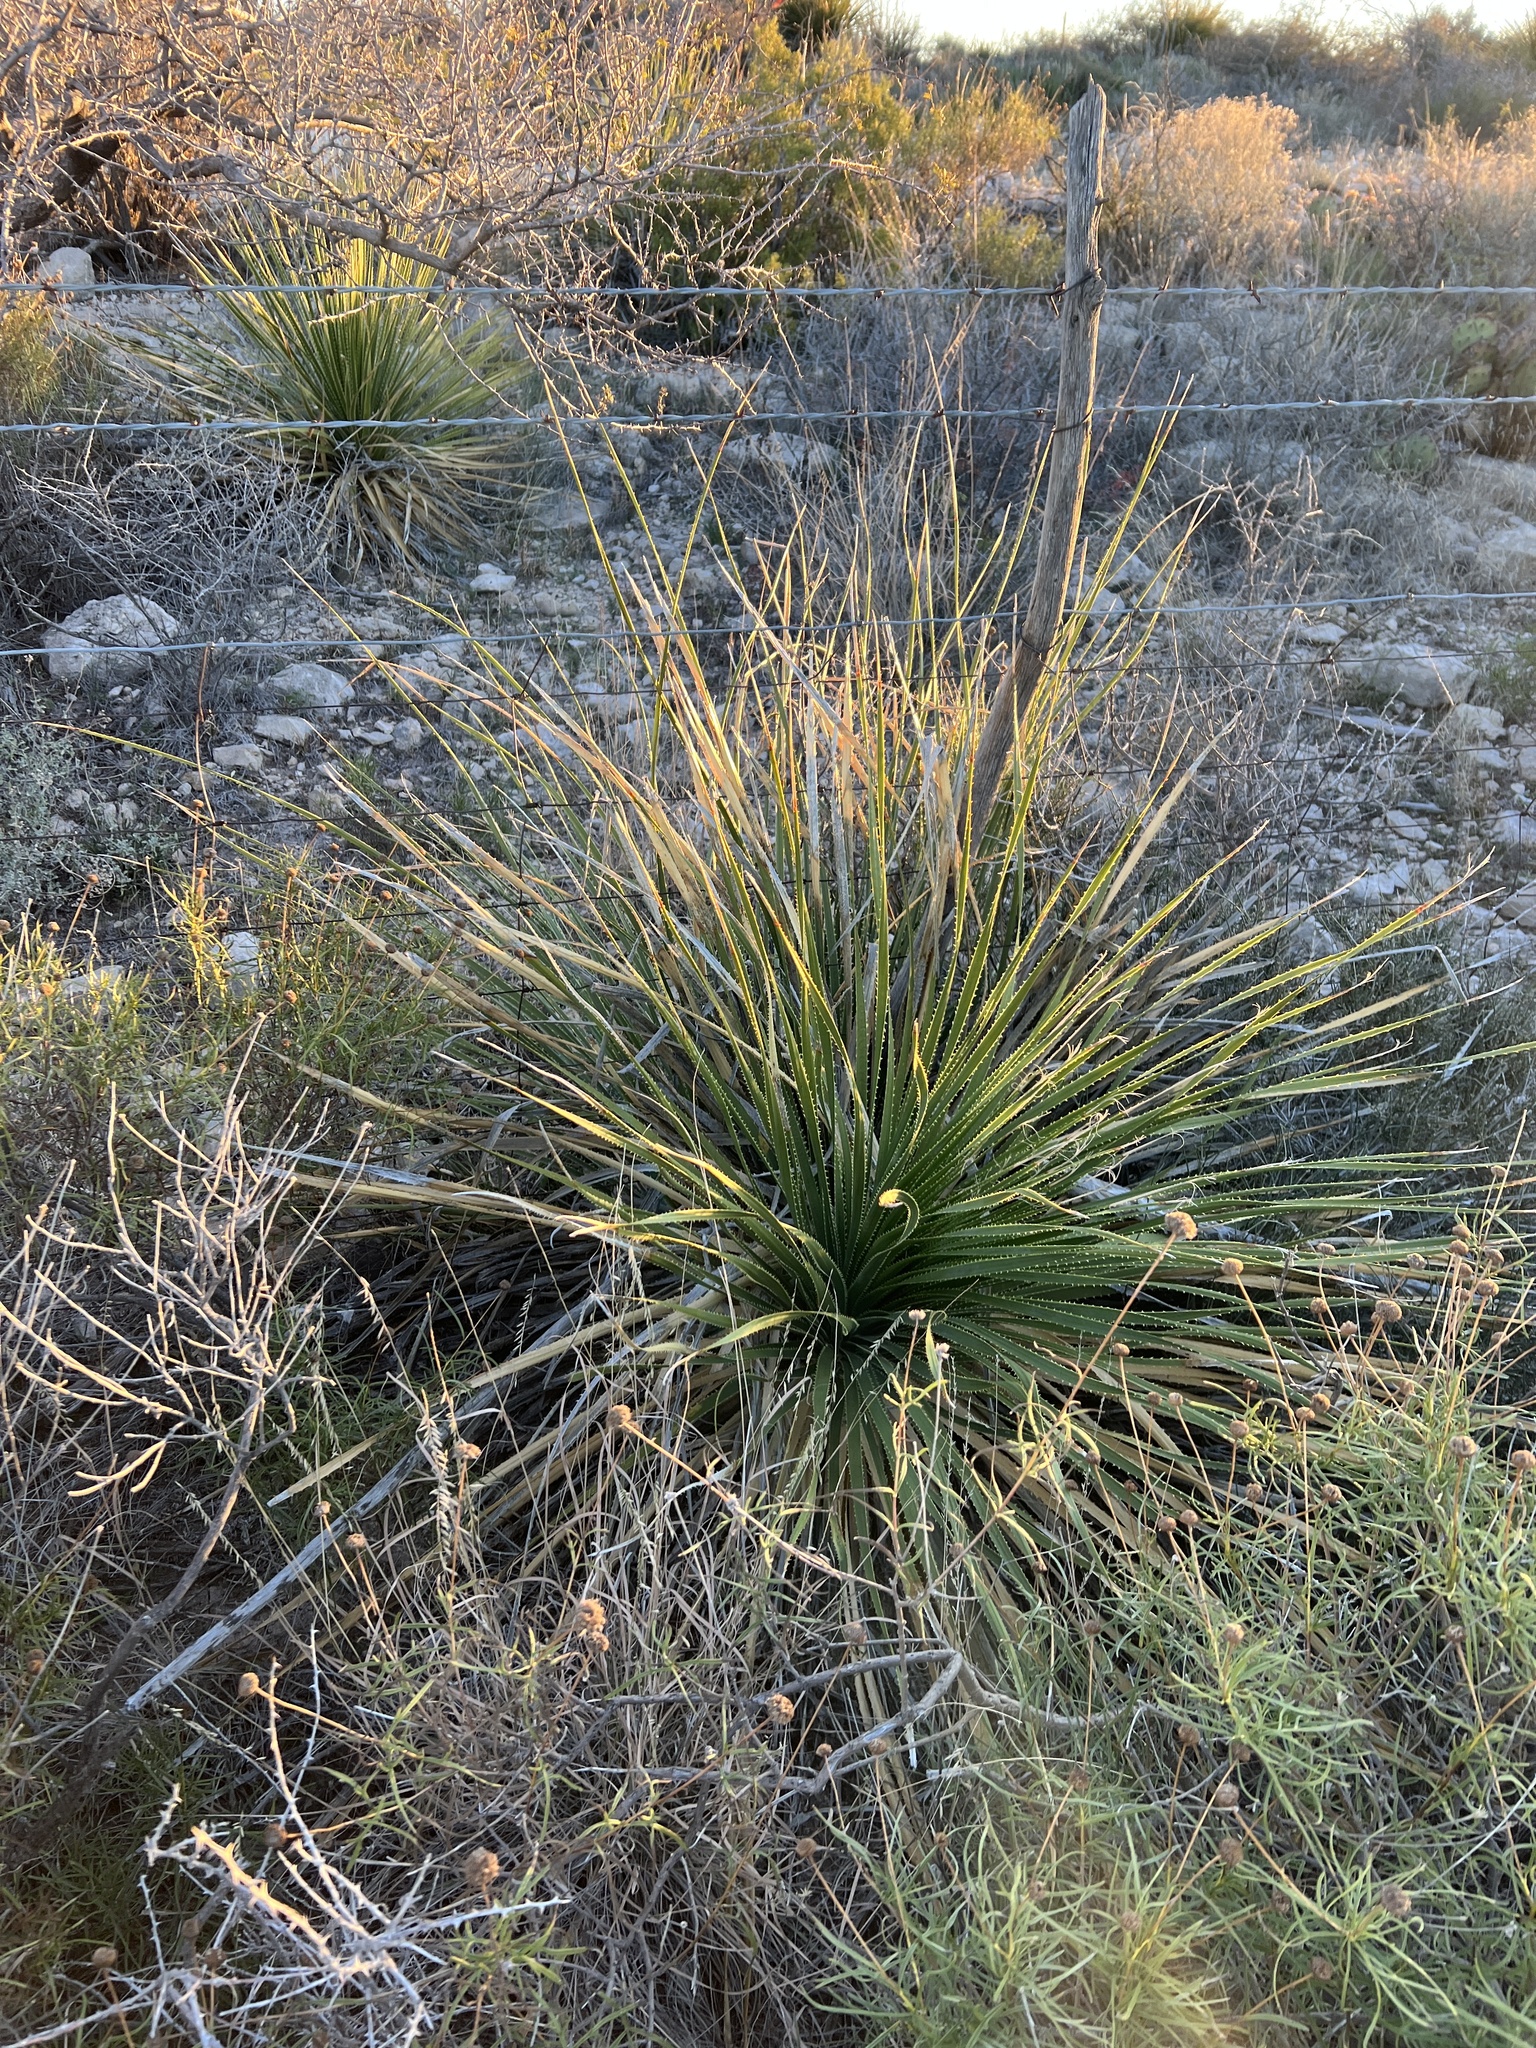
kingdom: Plantae
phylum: Tracheophyta
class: Liliopsida
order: Asparagales
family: Asparagaceae
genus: Dasylirion
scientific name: Dasylirion texanum
